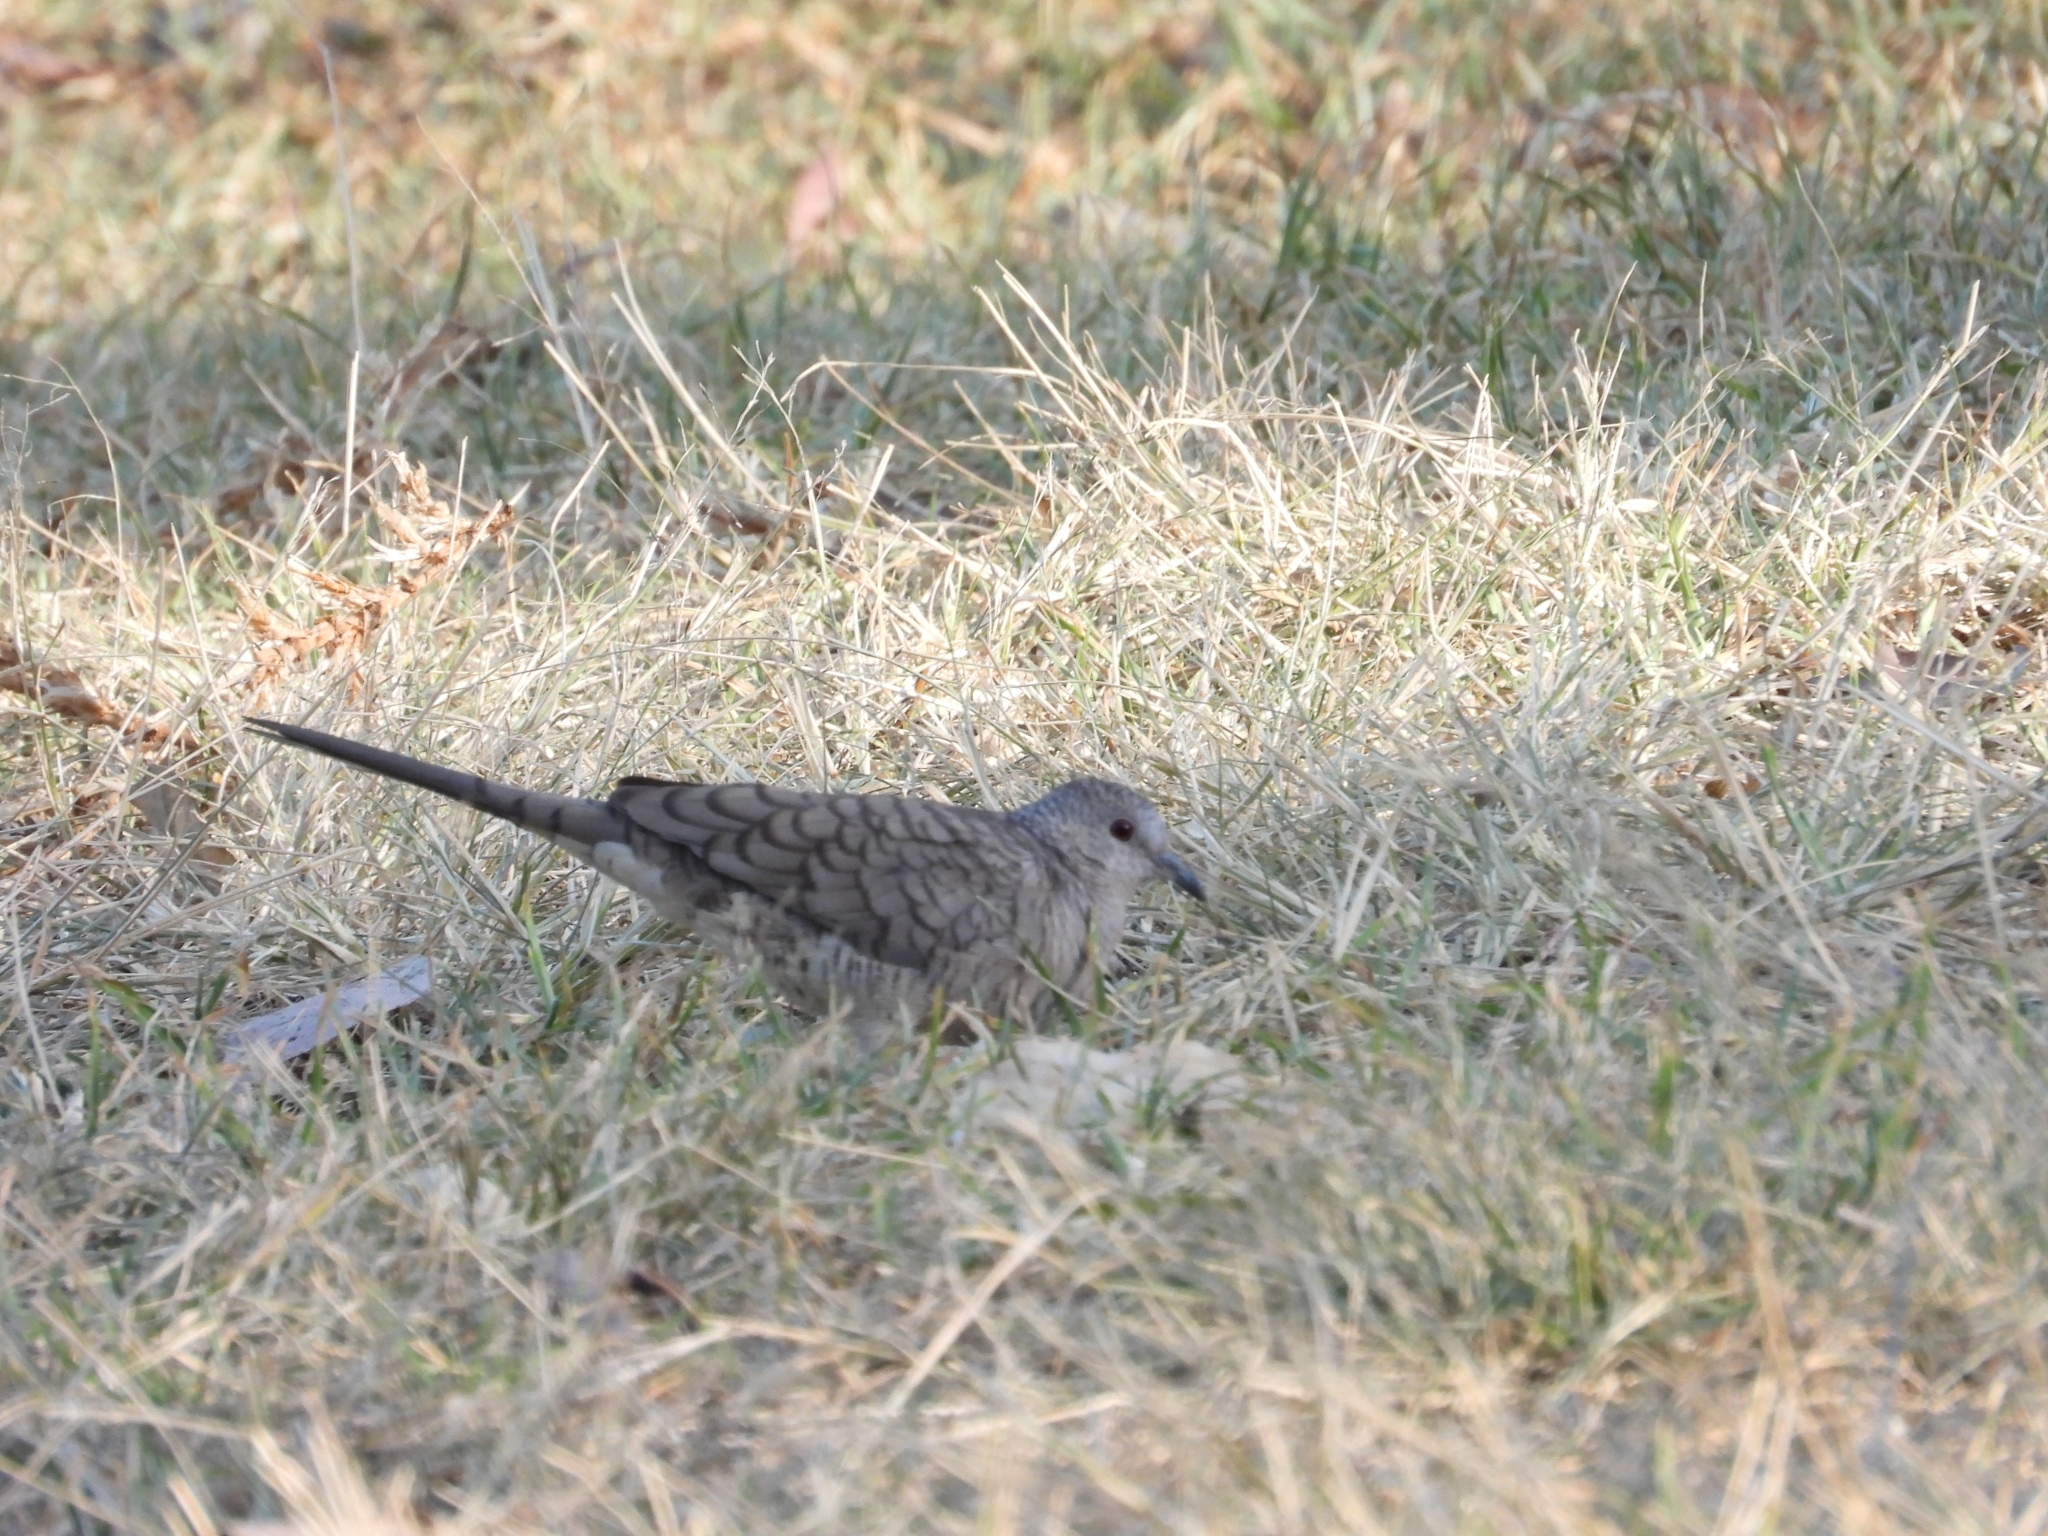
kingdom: Animalia
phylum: Chordata
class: Aves
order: Columbiformes
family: Columbidae
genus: Columbina
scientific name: Columbina inca
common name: Inca dove
